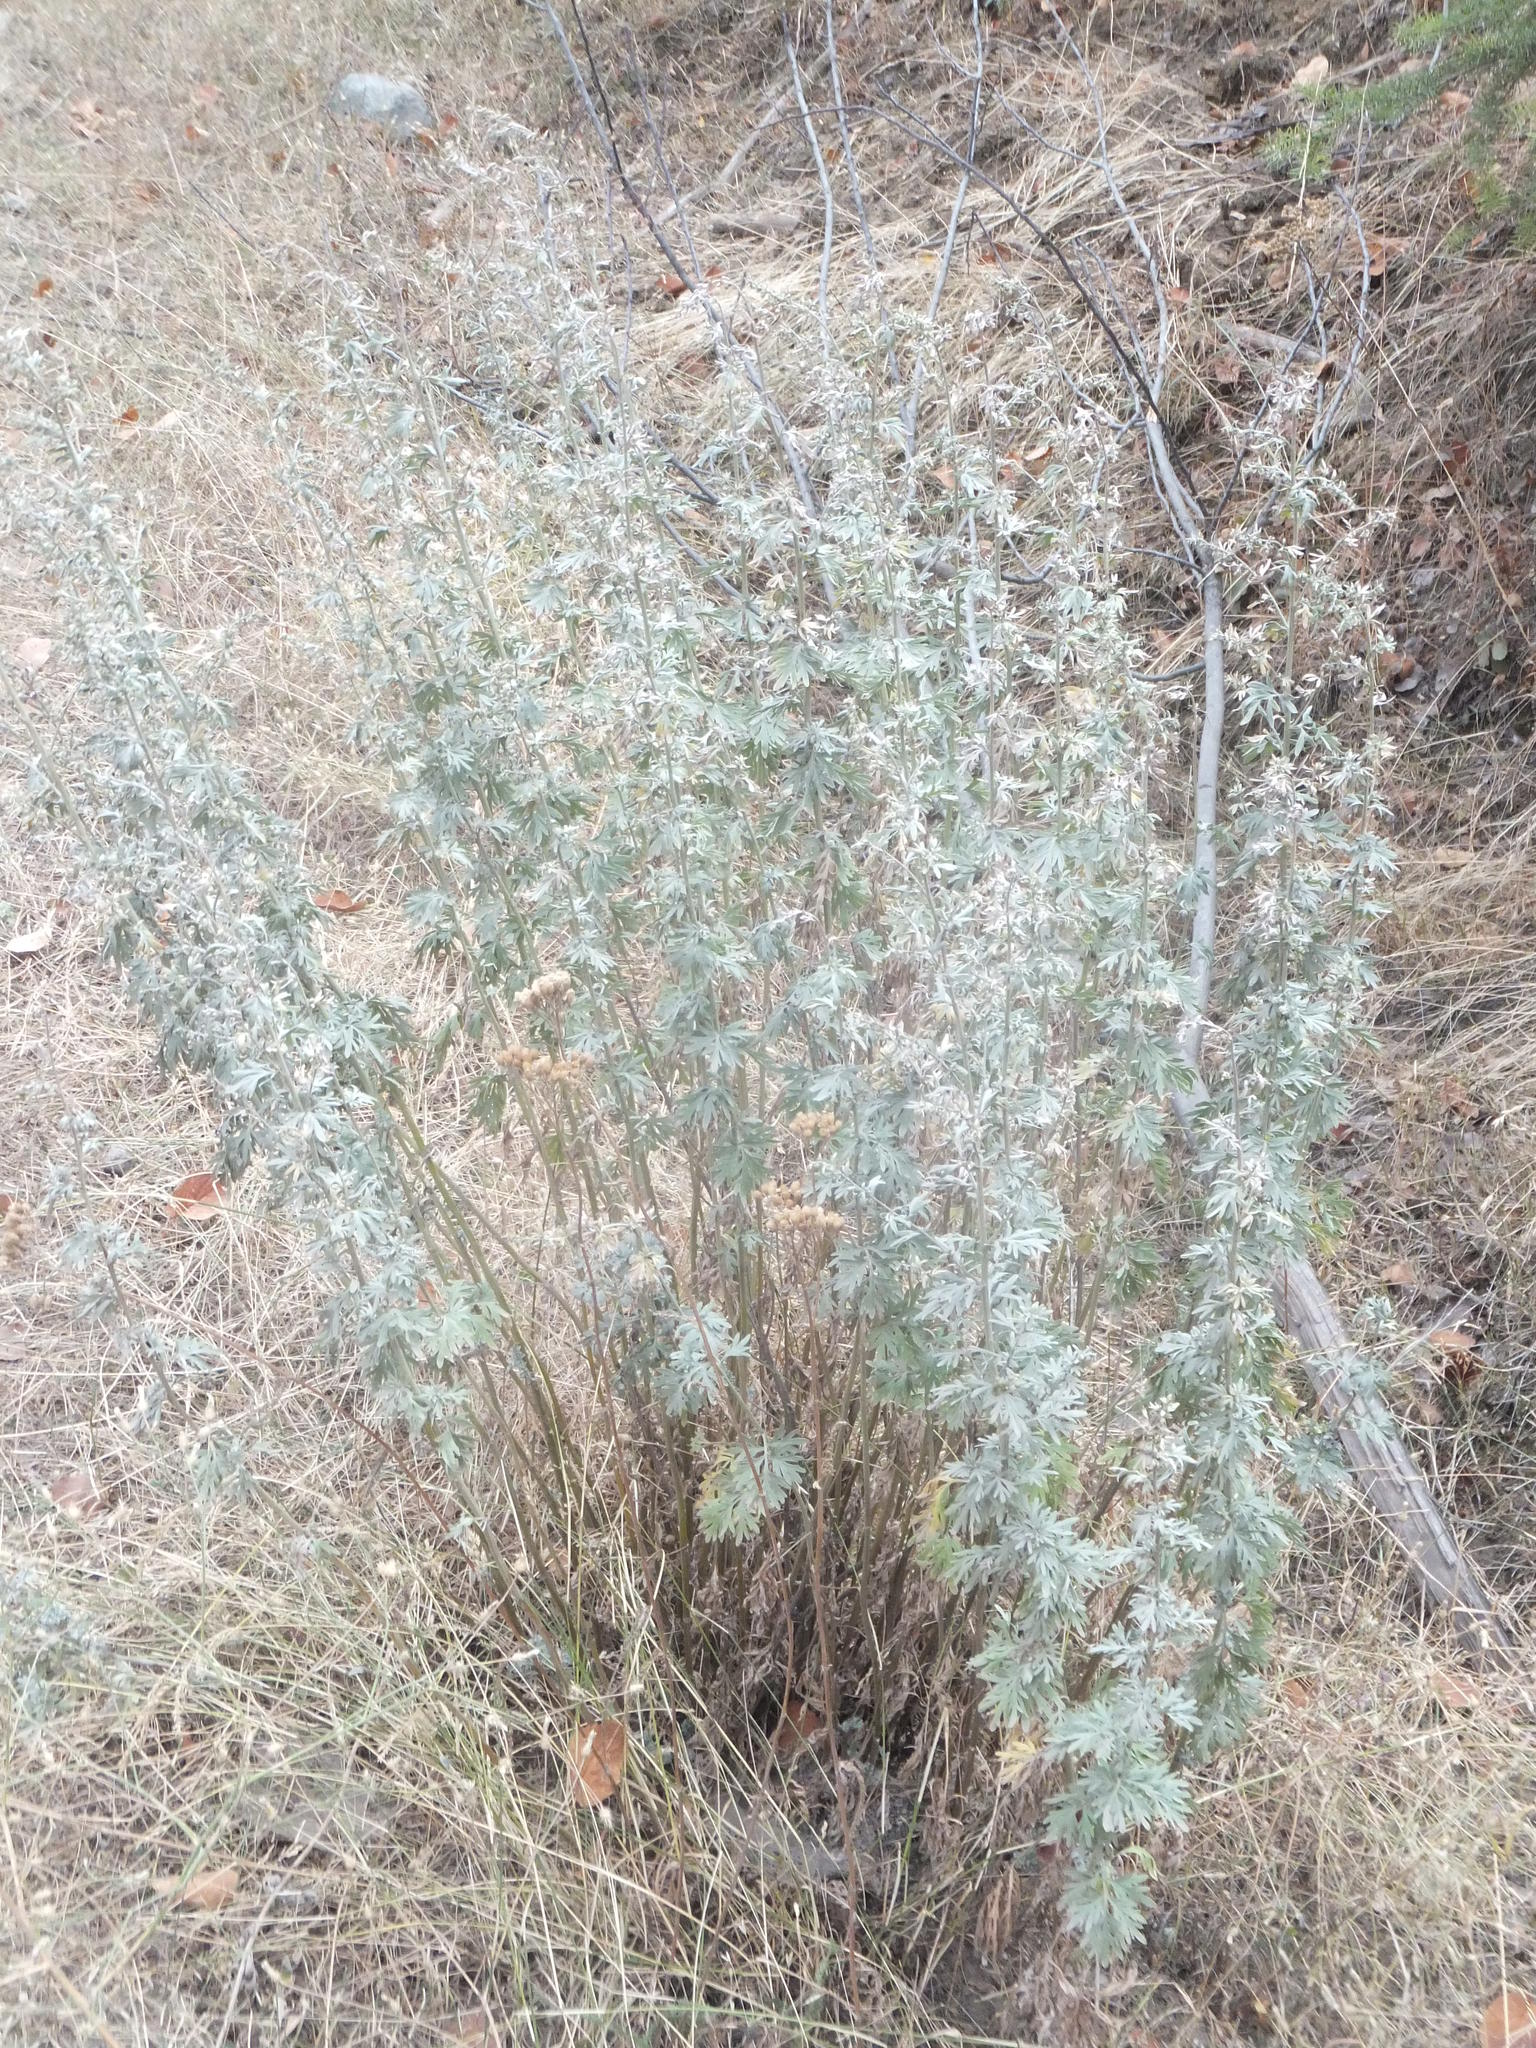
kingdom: Plantae
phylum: Tracheophyta
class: Magnoliopsida
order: Asterales
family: Asteraceae
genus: Artemisia
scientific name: Artemisia absinthium
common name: Wormwood
